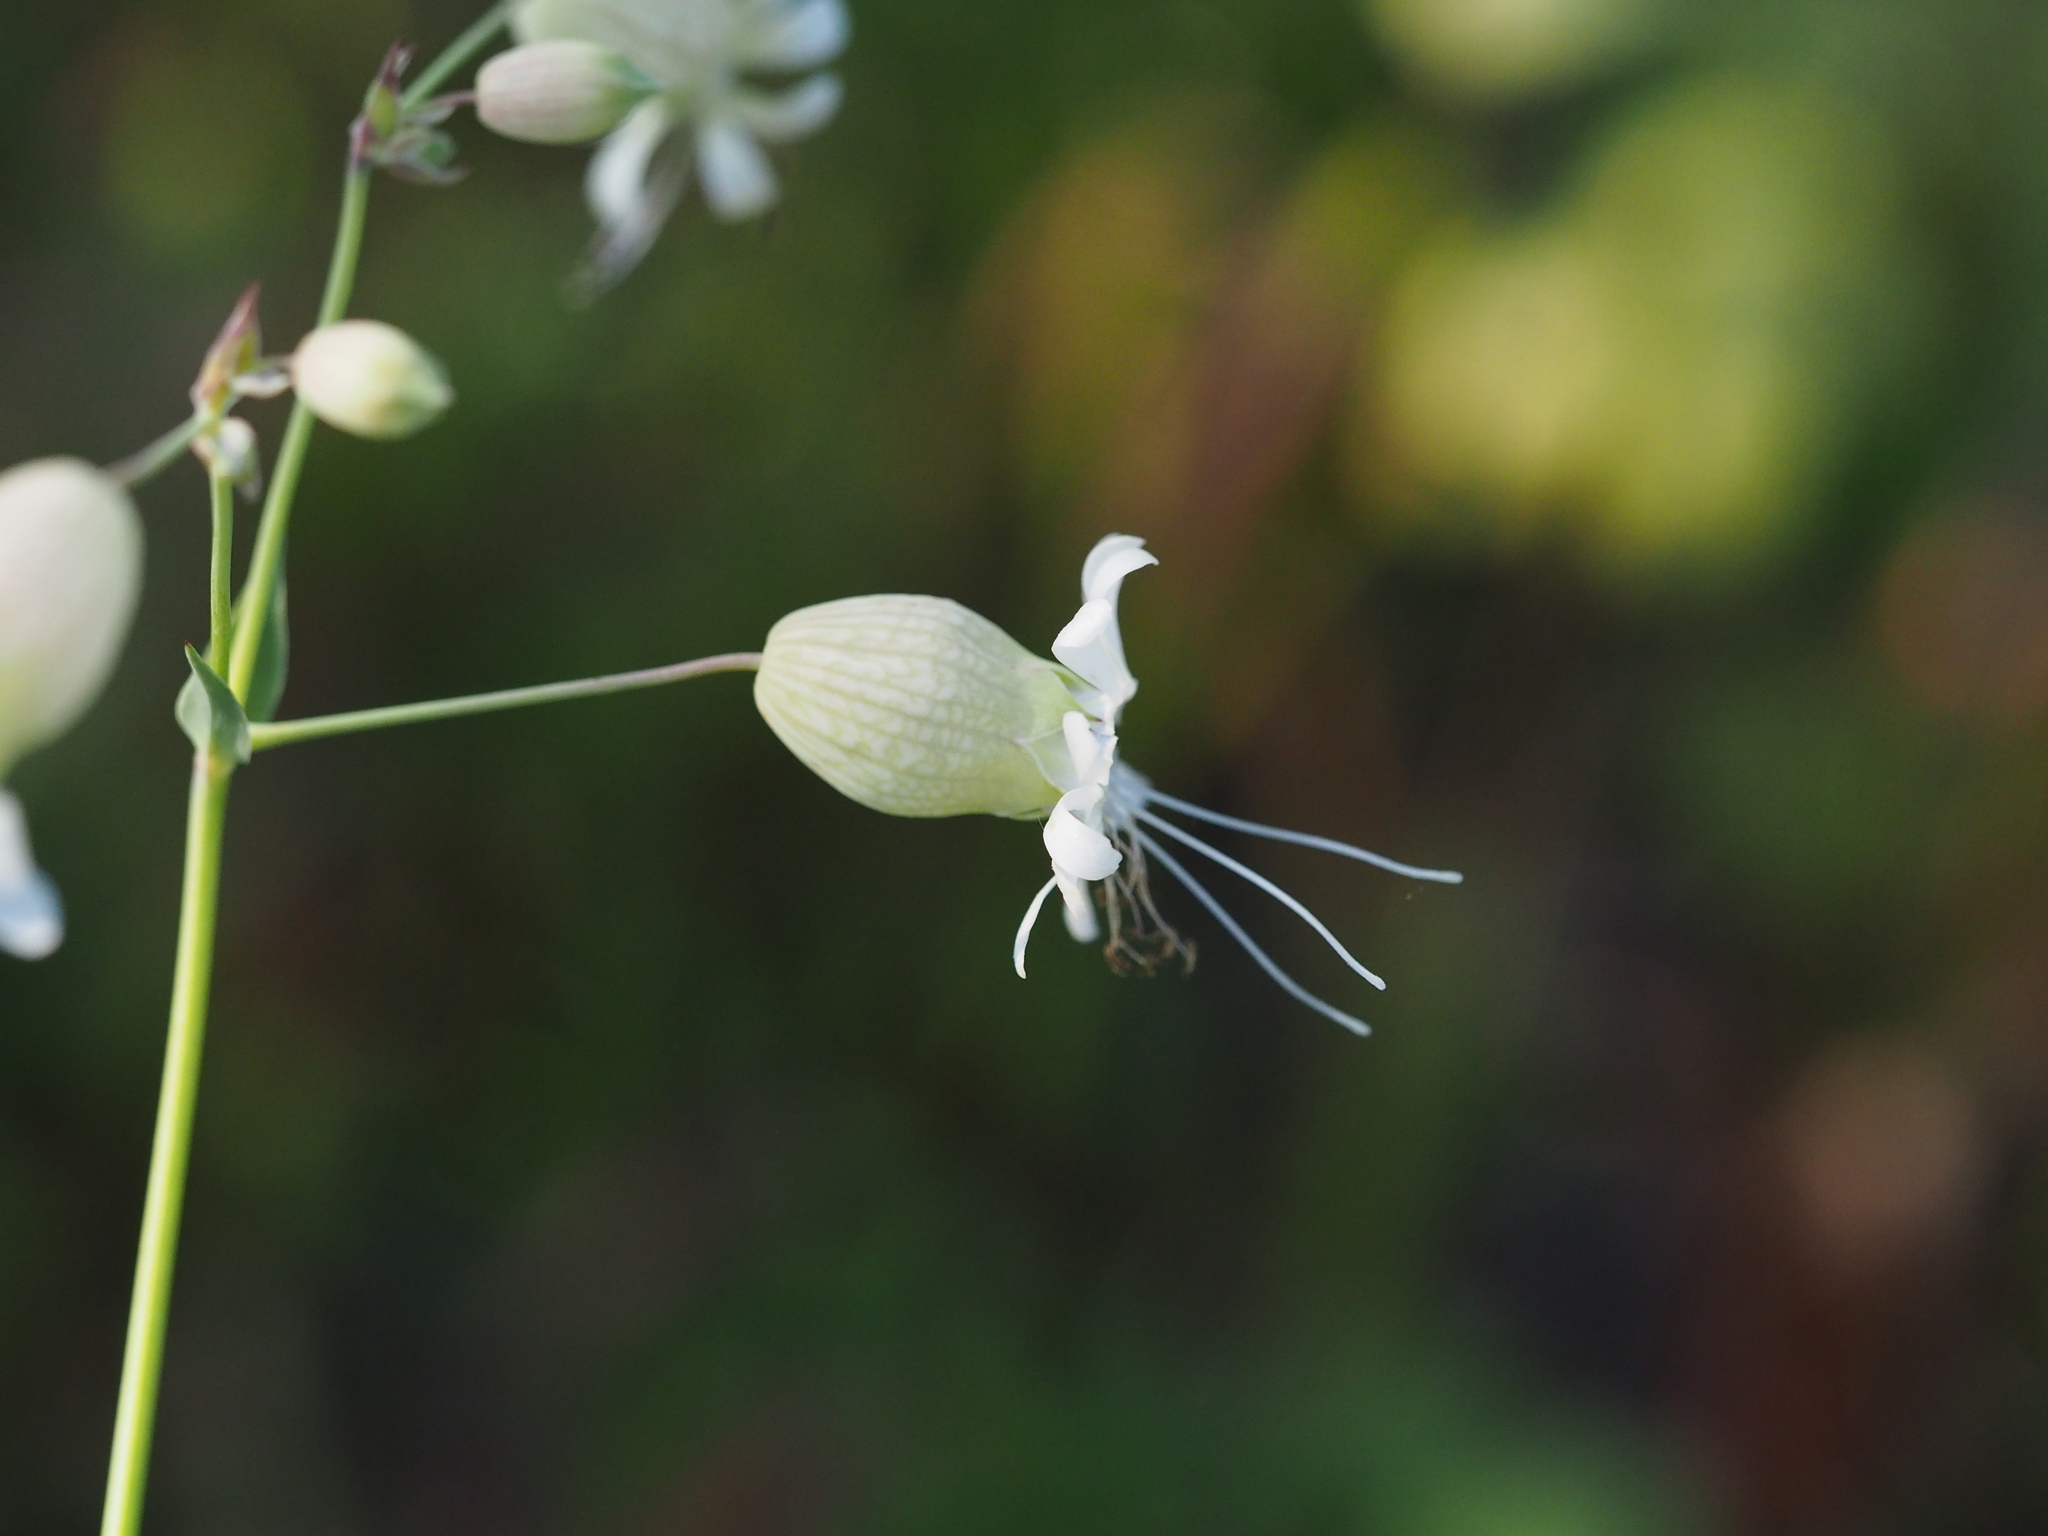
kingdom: Plantae
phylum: Tracheophyta
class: Magnoliopsida
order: Caryophyllales
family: Caryophyllaceae
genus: Silene
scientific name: Silene vulgaris
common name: Bladder campion
